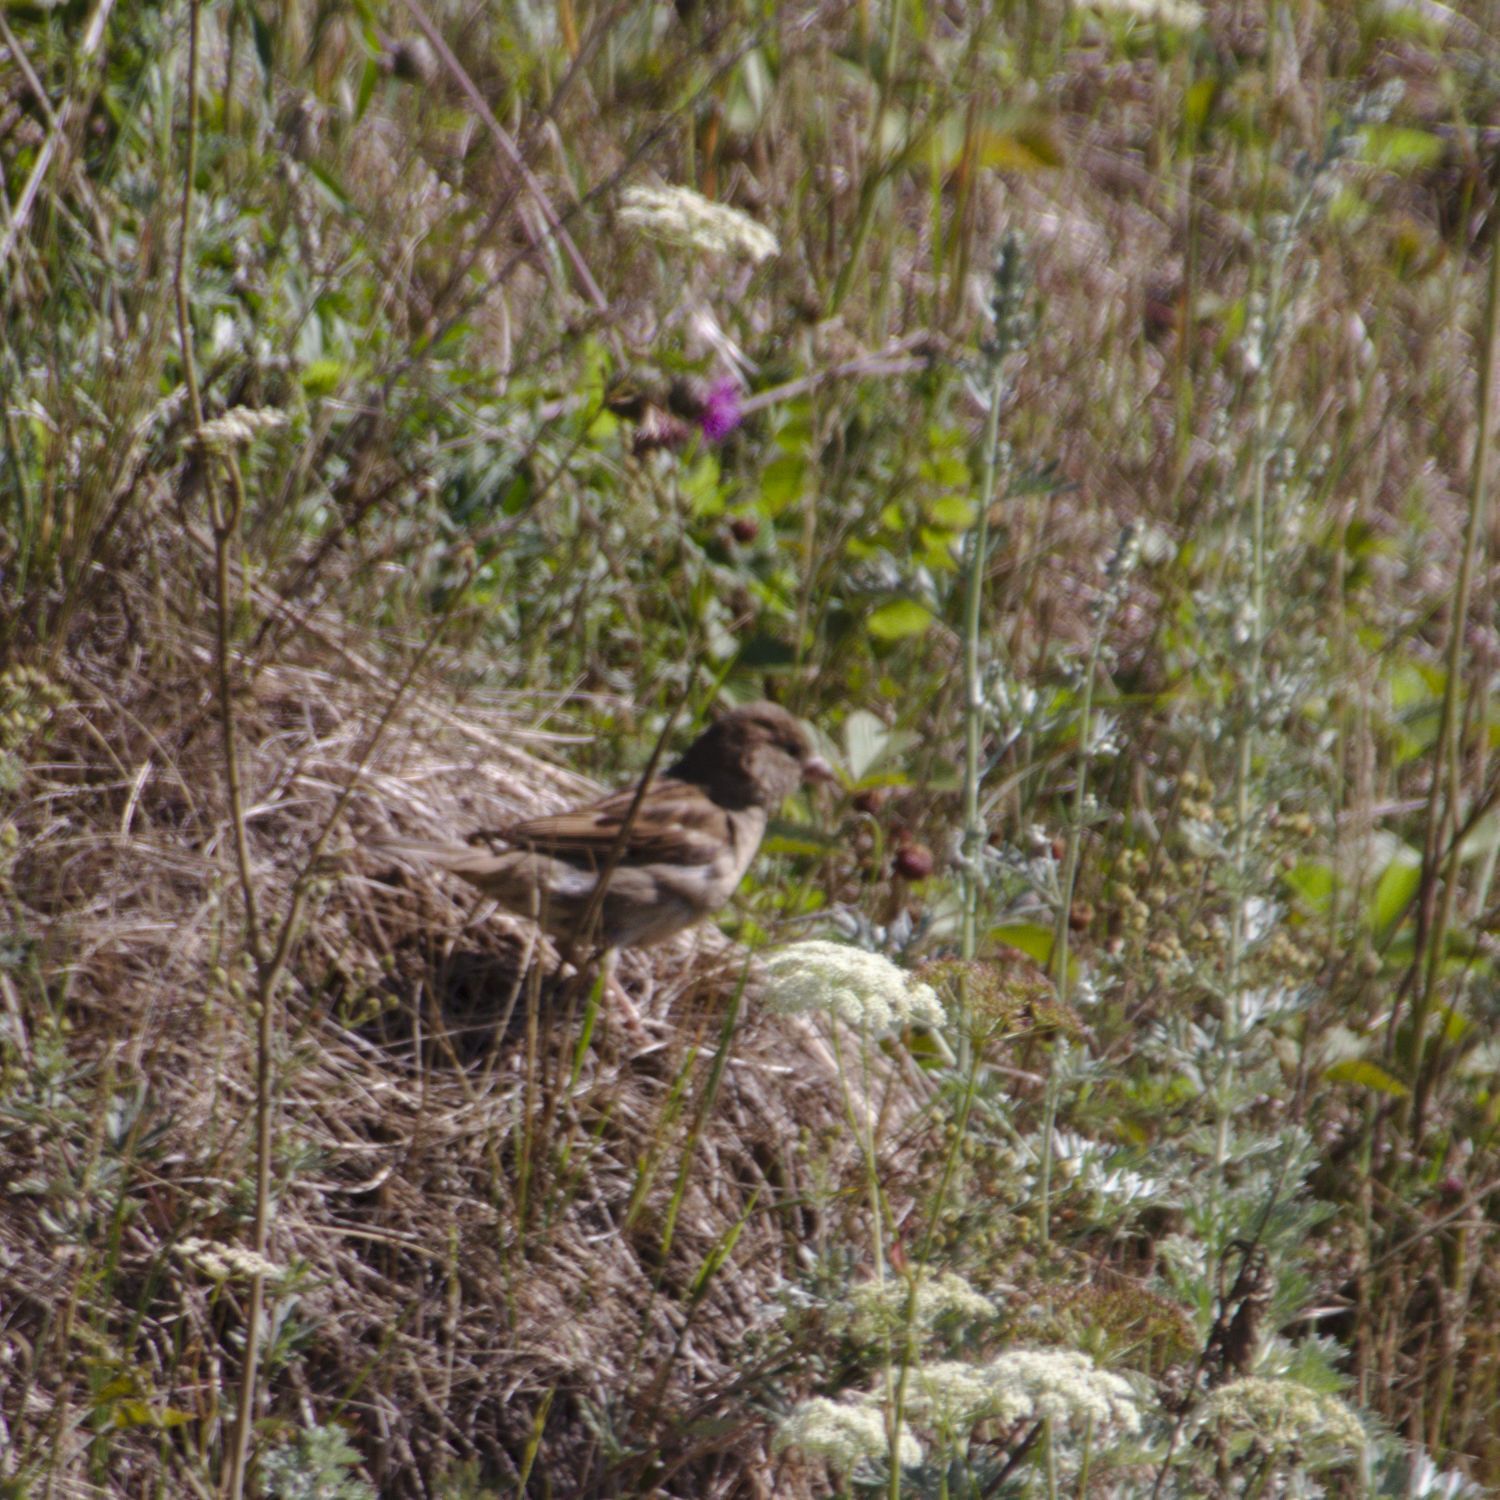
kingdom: Animalia
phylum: Chordata
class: Aves
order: Passeriformes
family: Passeridae
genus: Passer
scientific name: Passer domesticus
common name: House sparrow
